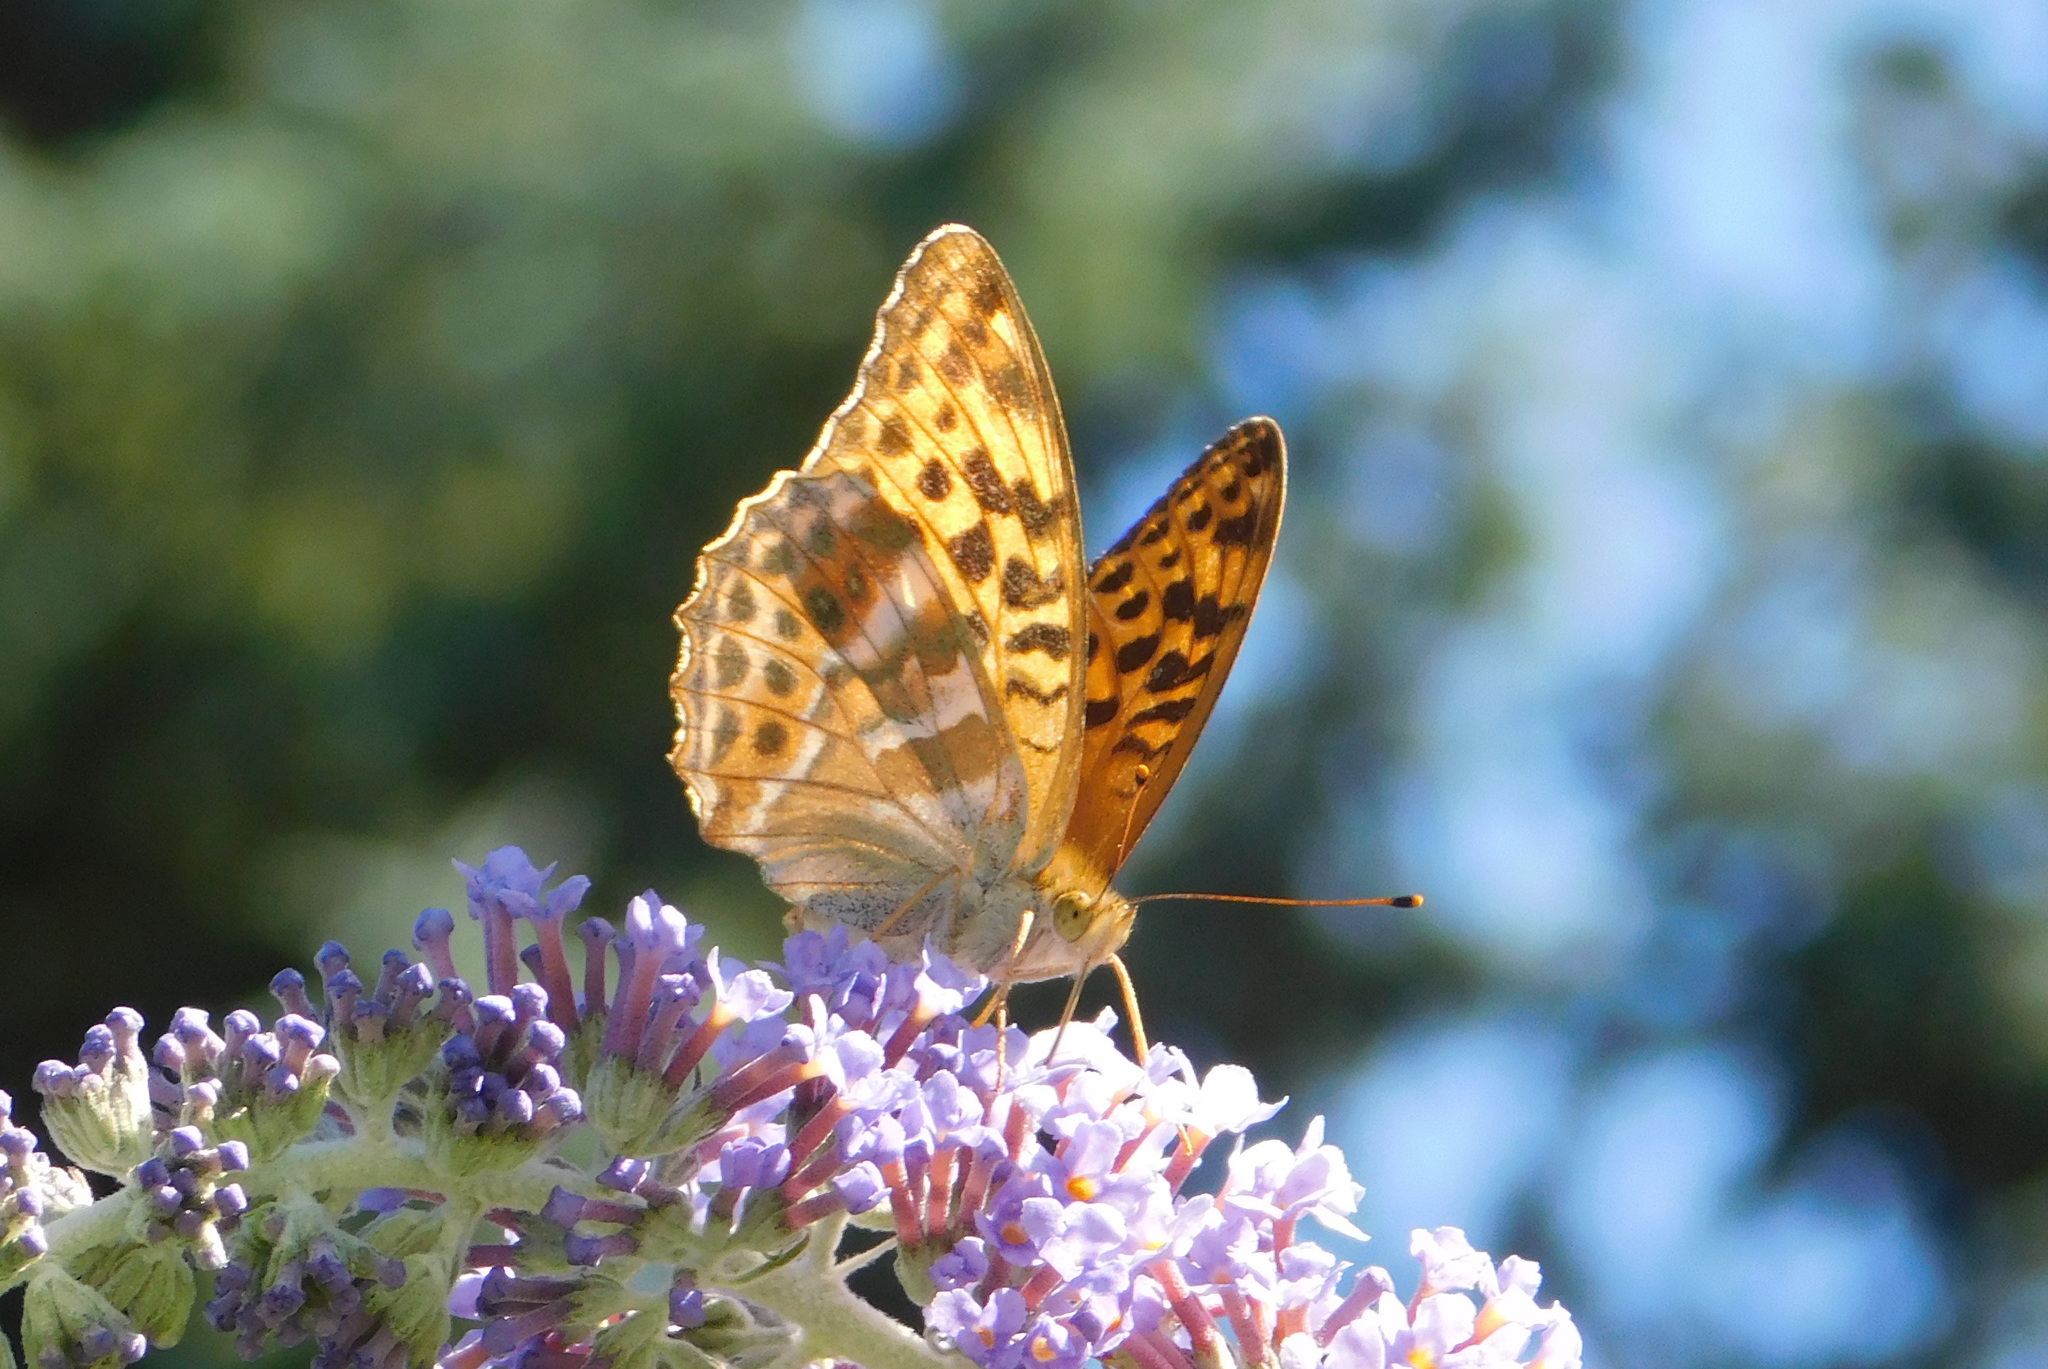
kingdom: Animalia
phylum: Arthropoda
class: Insecta
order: Lepidoptera
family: Nymphalidae
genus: Argynnis
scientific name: Argynnis paphia
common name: Silver-washed fritillary
